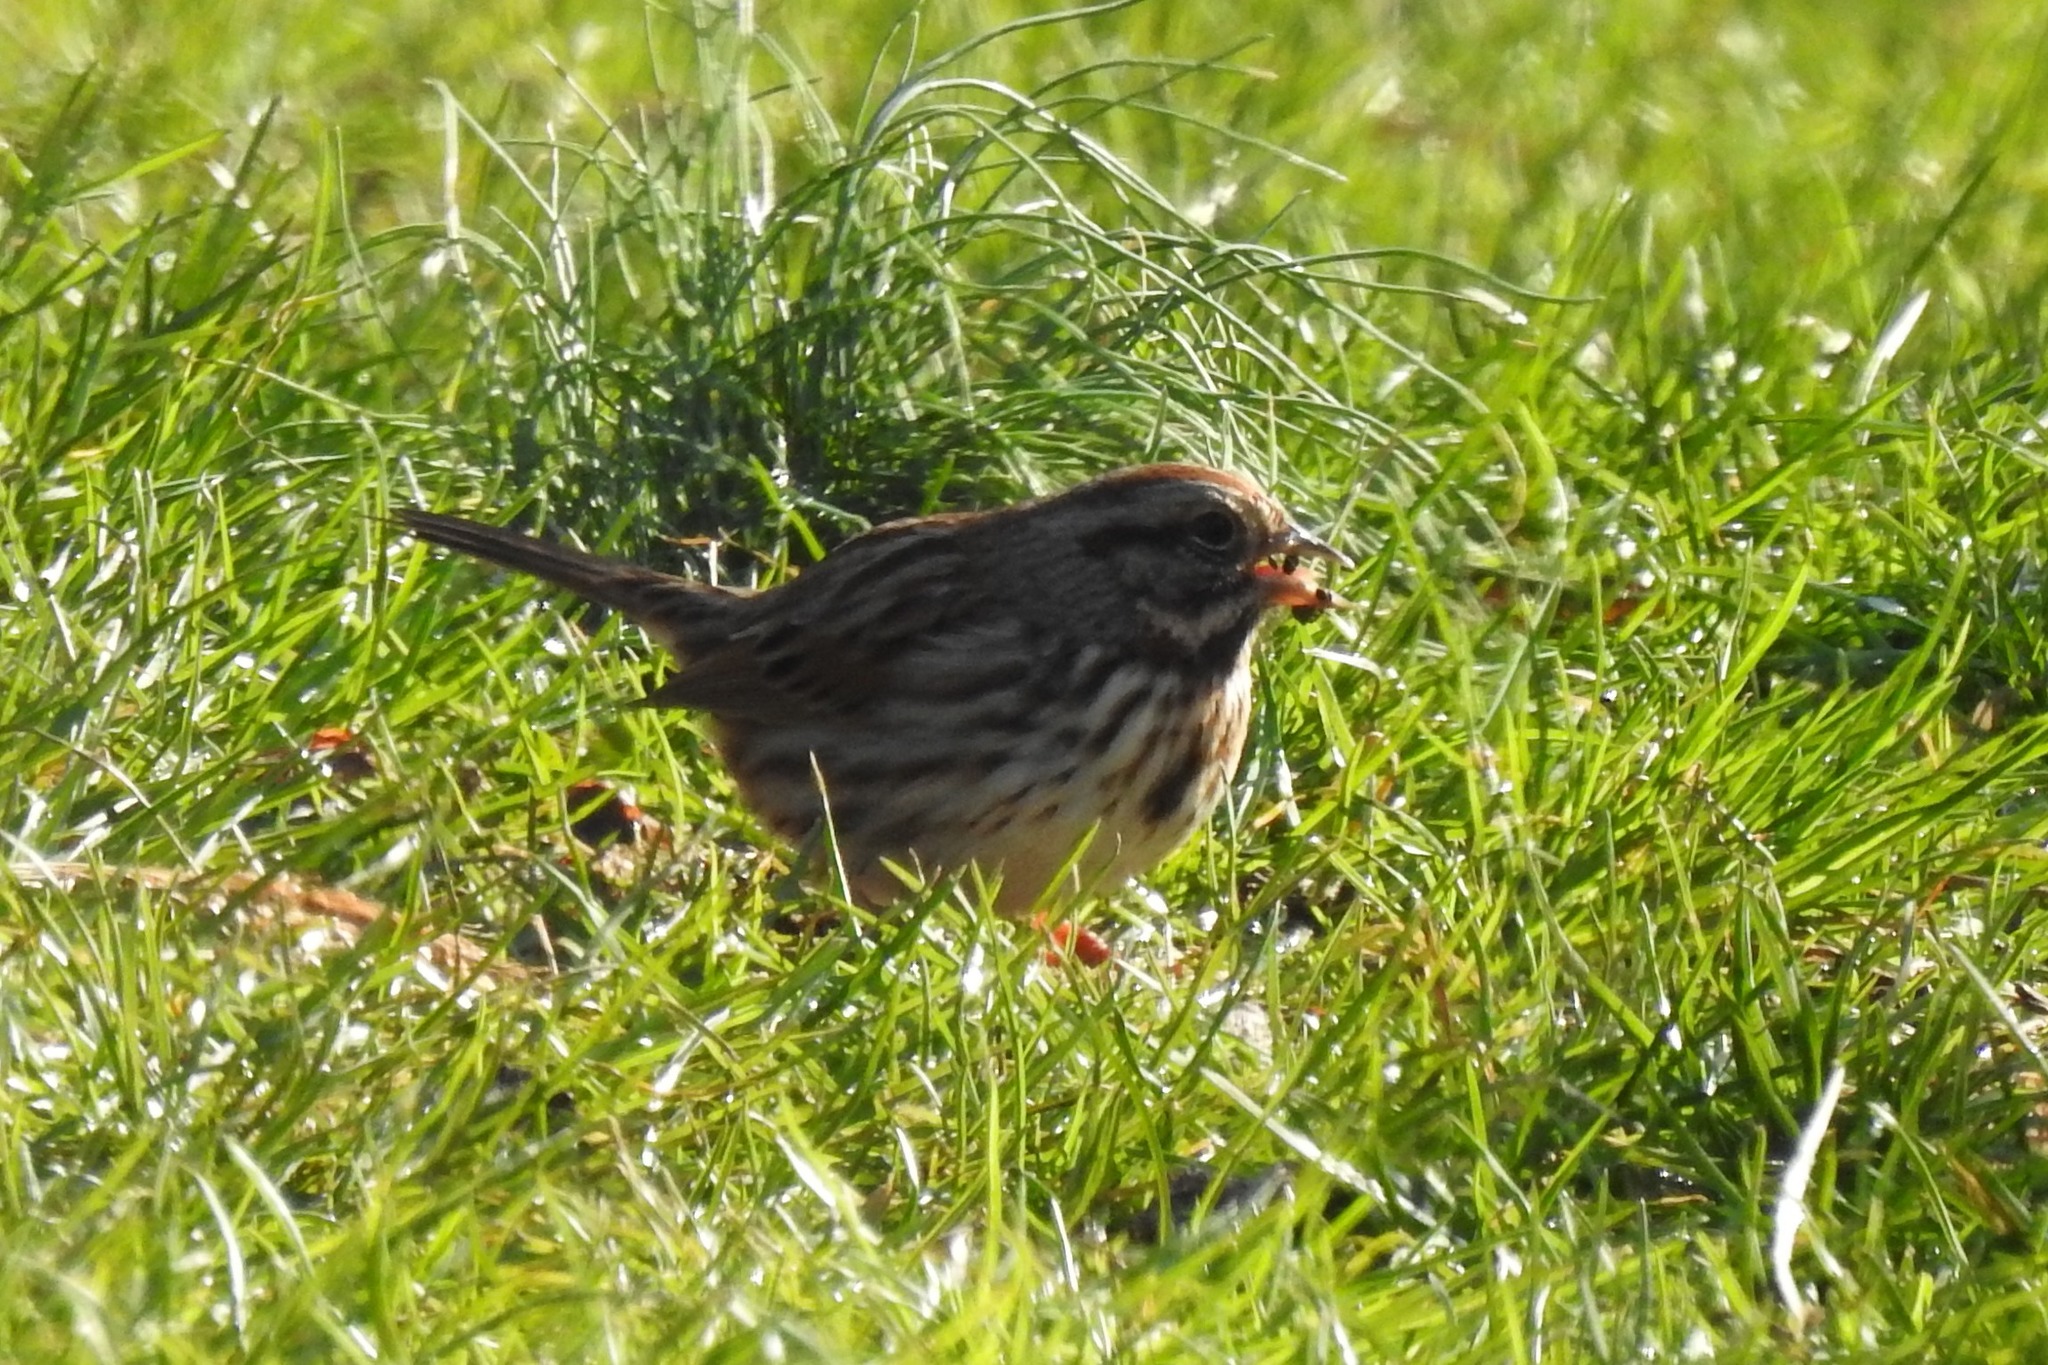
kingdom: Animalia
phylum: Chordata
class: Aves
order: Passeriformes
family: Passerellidae
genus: Melospiza
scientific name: Melospiza melodia
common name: Song sparrow
